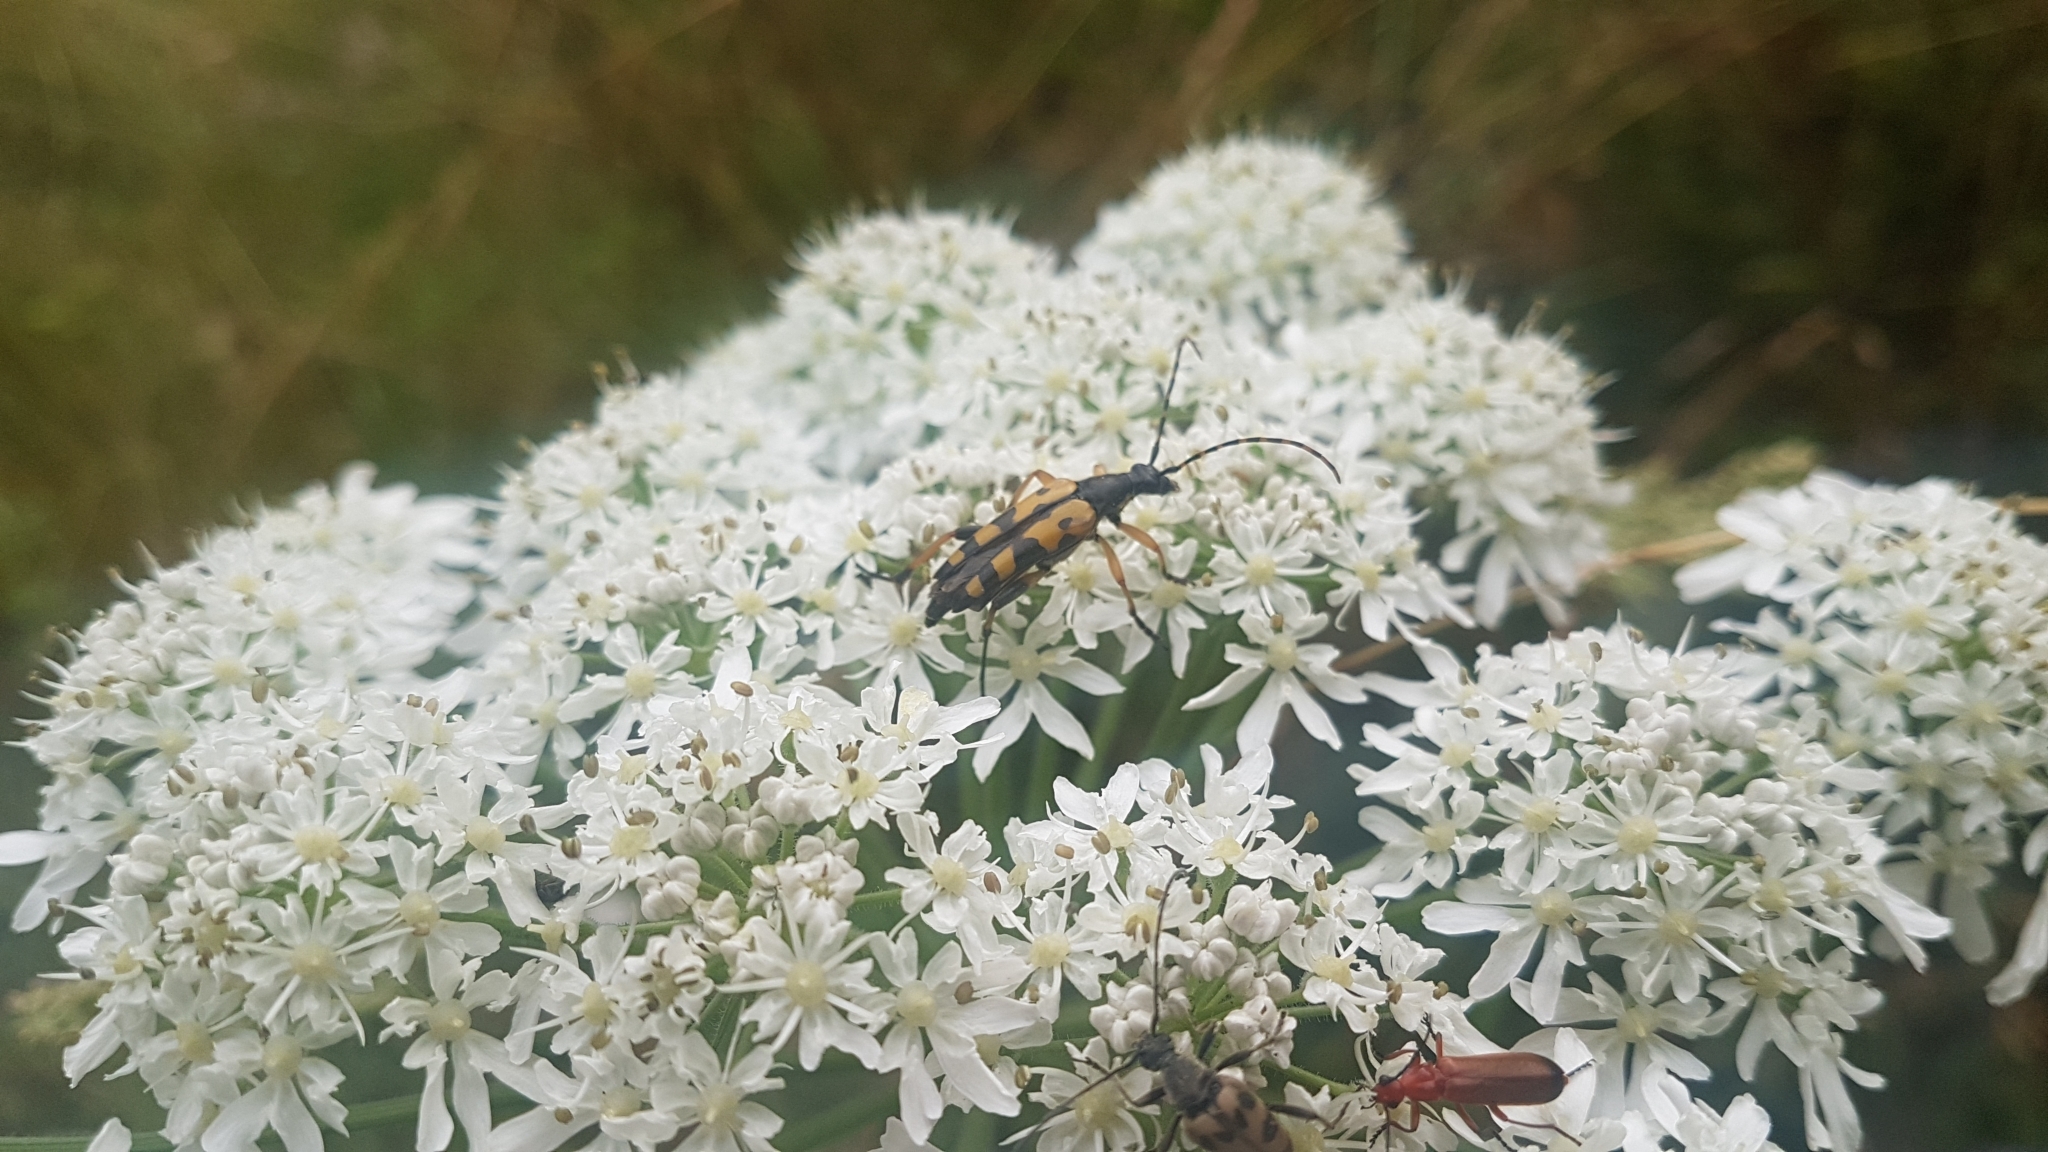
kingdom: Animalia
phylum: Arthropoda
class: Insecta
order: Coleoptera
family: Cerambycidae
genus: Rutpela
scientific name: Rutpela maculata
